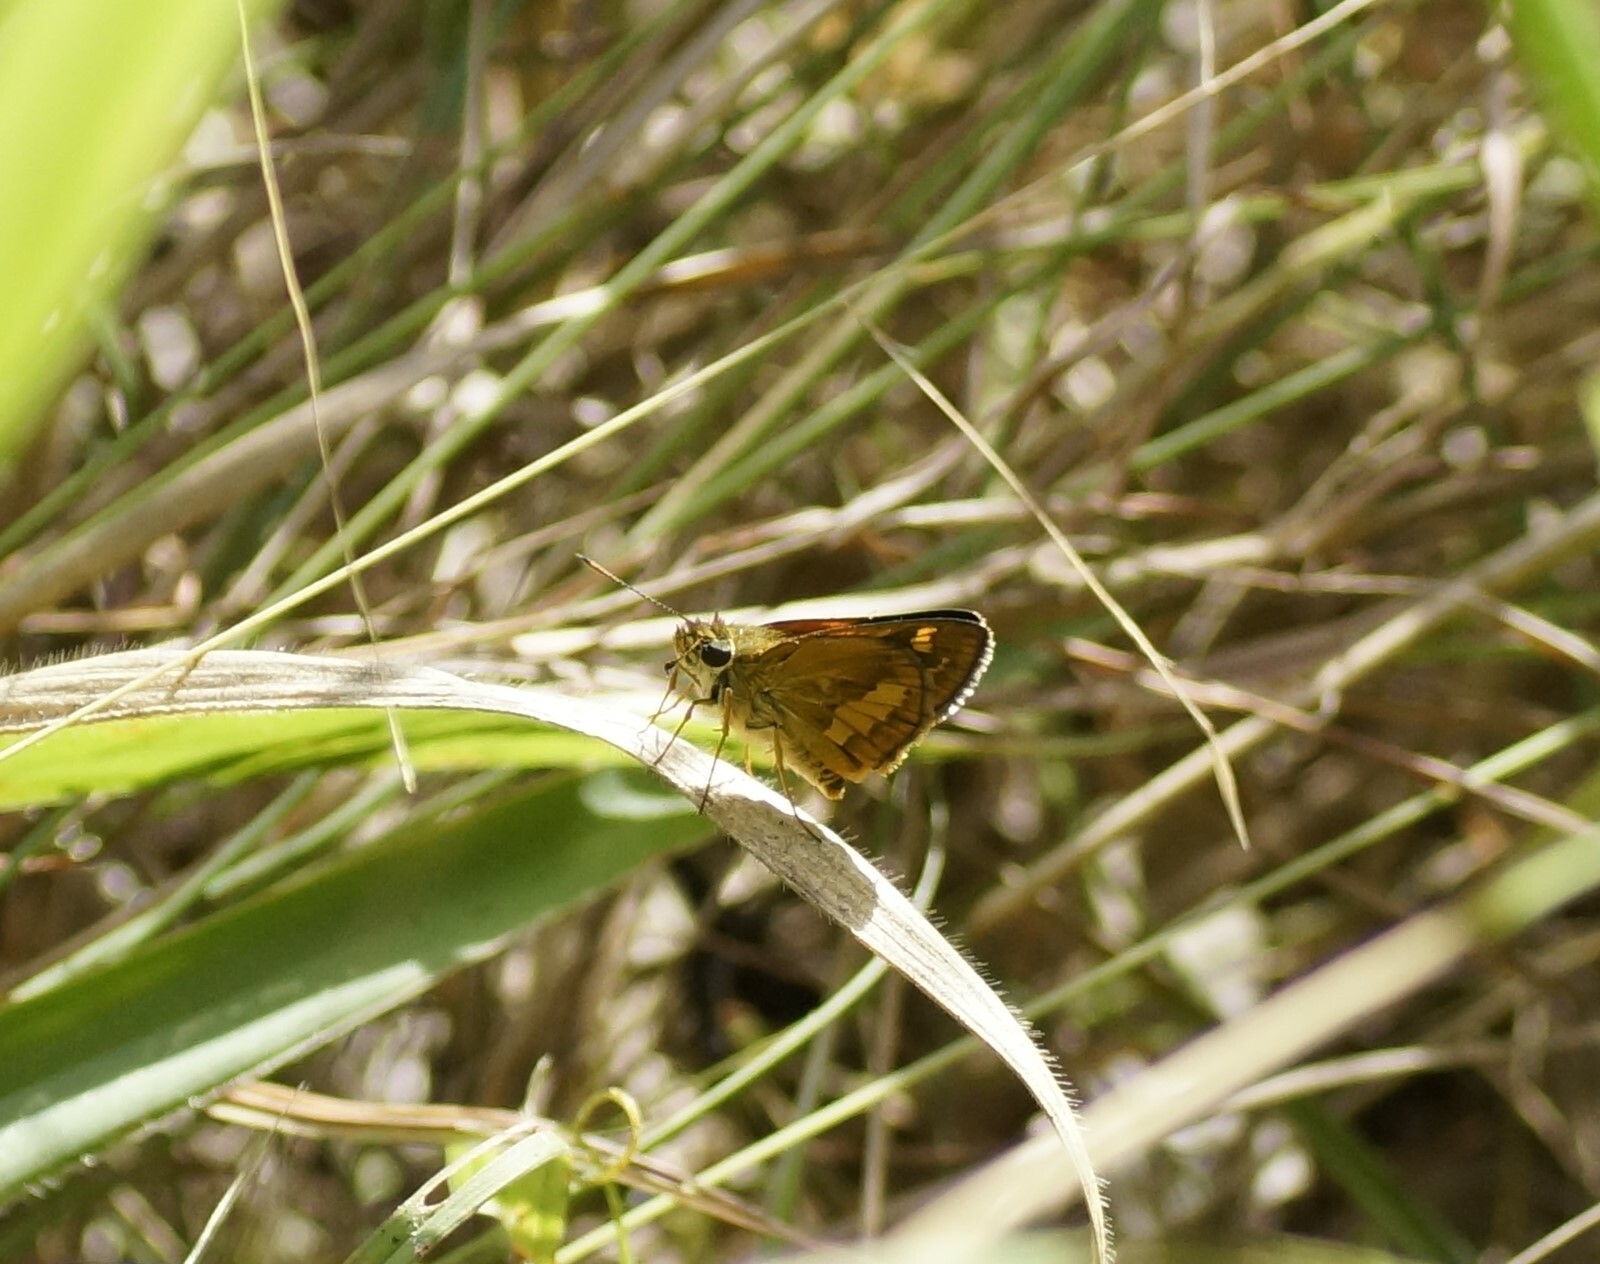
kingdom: Animalia
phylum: Arthropoda
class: Insecta
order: Lepidoptera
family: Hesperiidae
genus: Arrhenes
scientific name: Arrhenes dschilus
